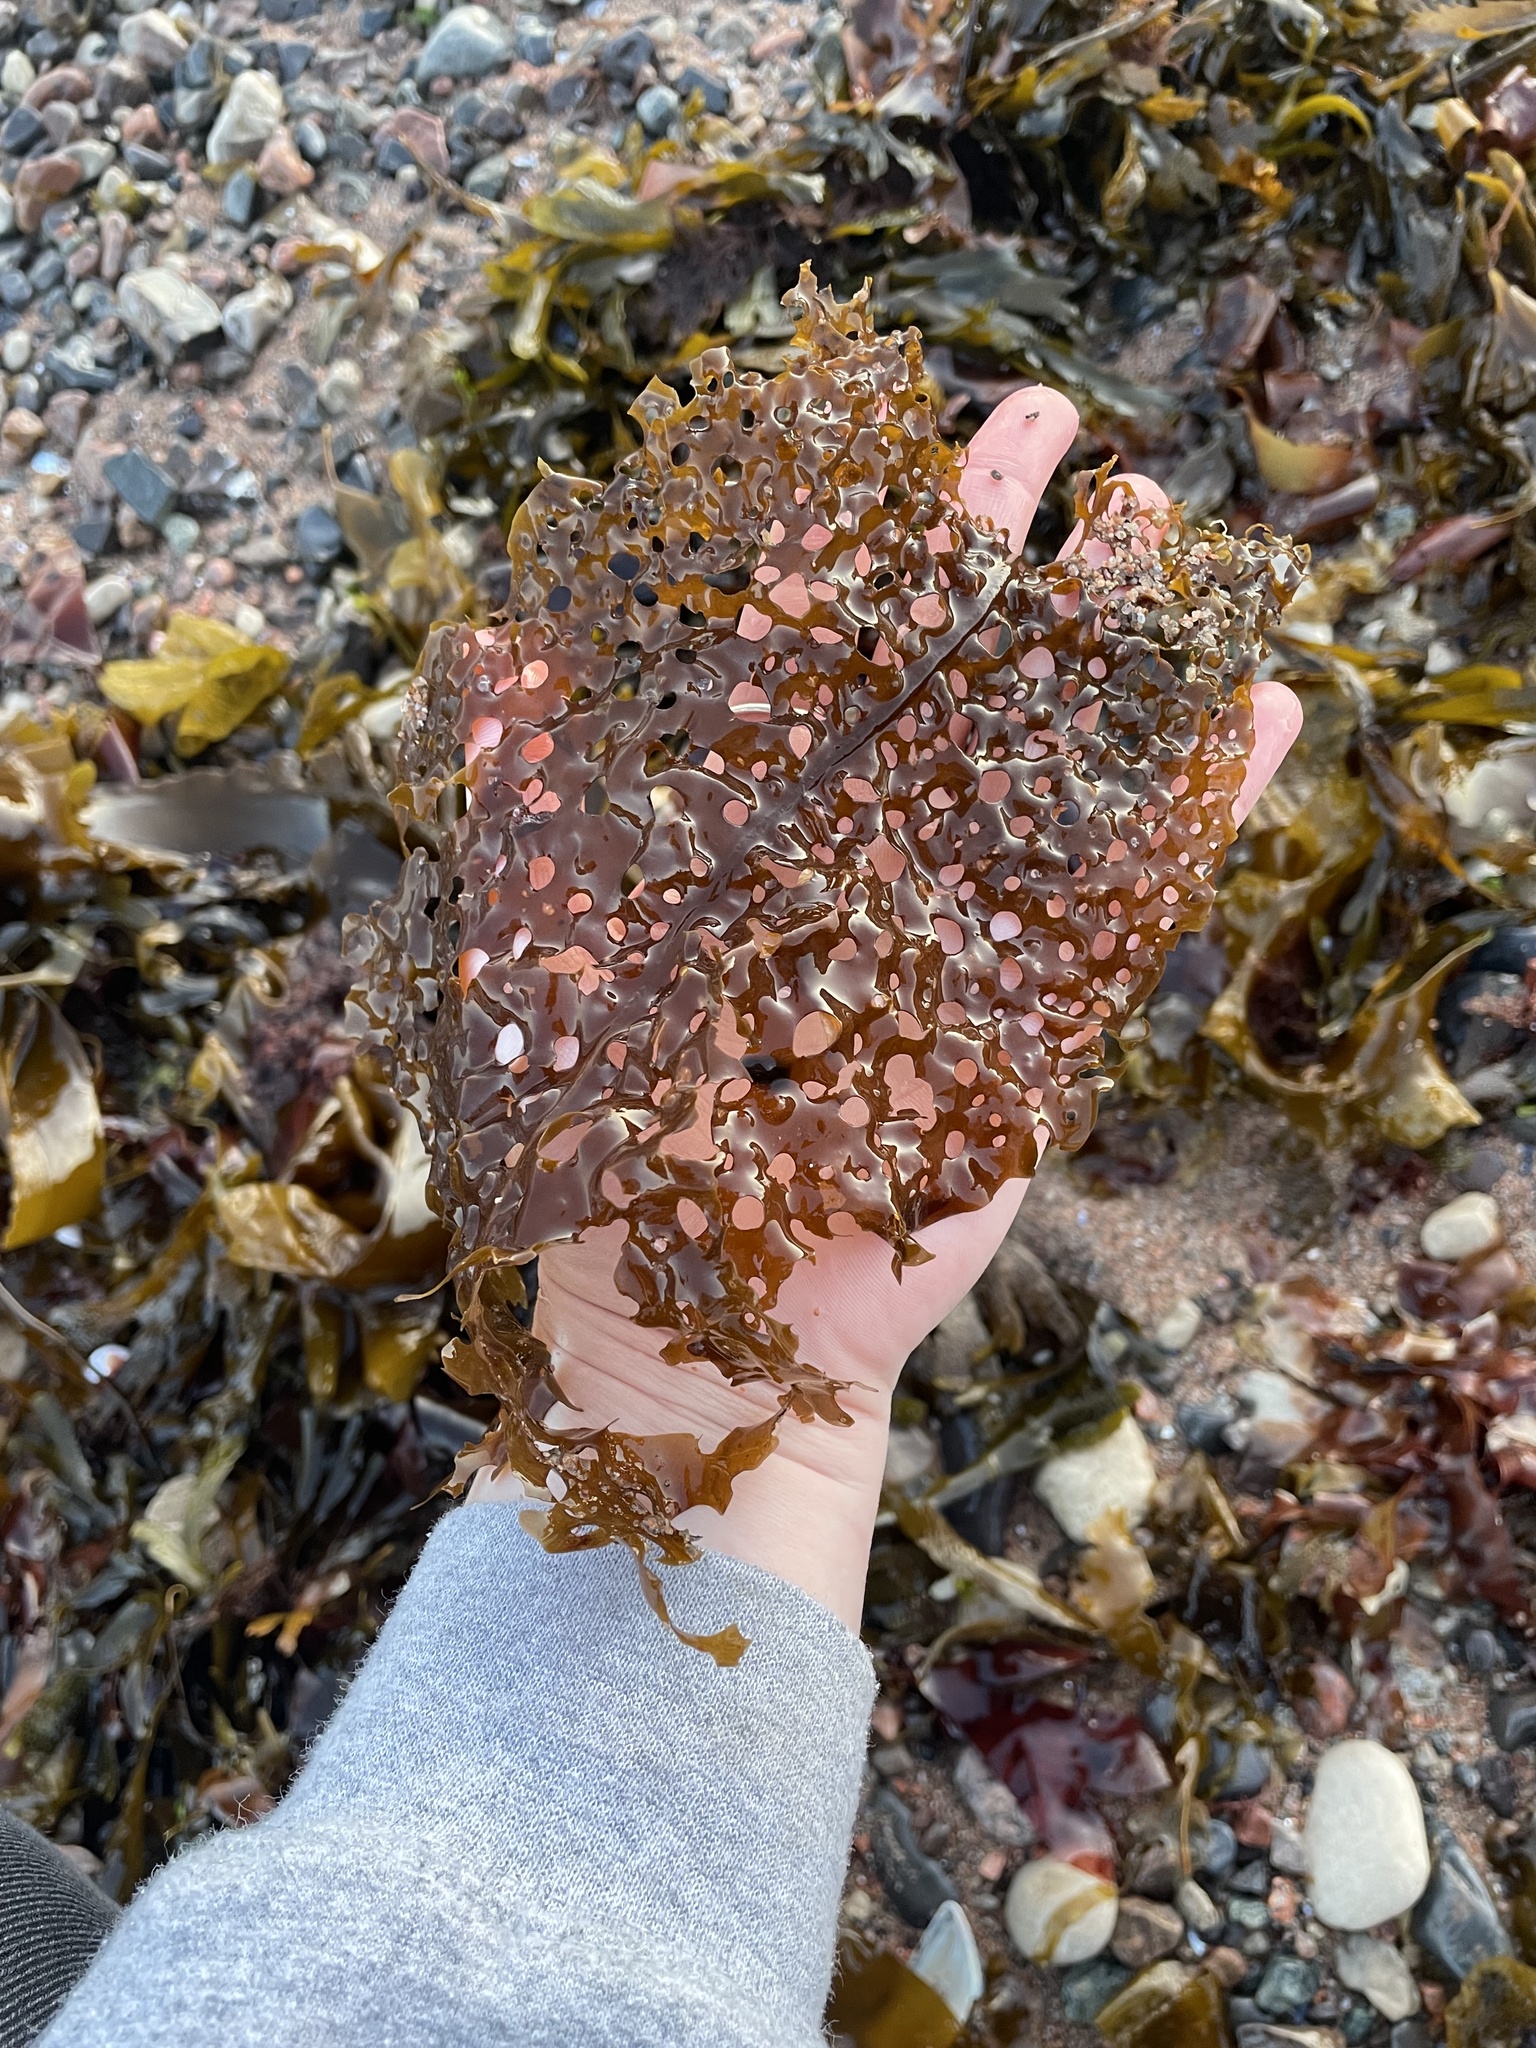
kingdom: Chromista
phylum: Ochrophyta
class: Phaeophyceae
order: Laminariales
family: Costariaceae
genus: Agarum
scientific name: Agarum clathratum
